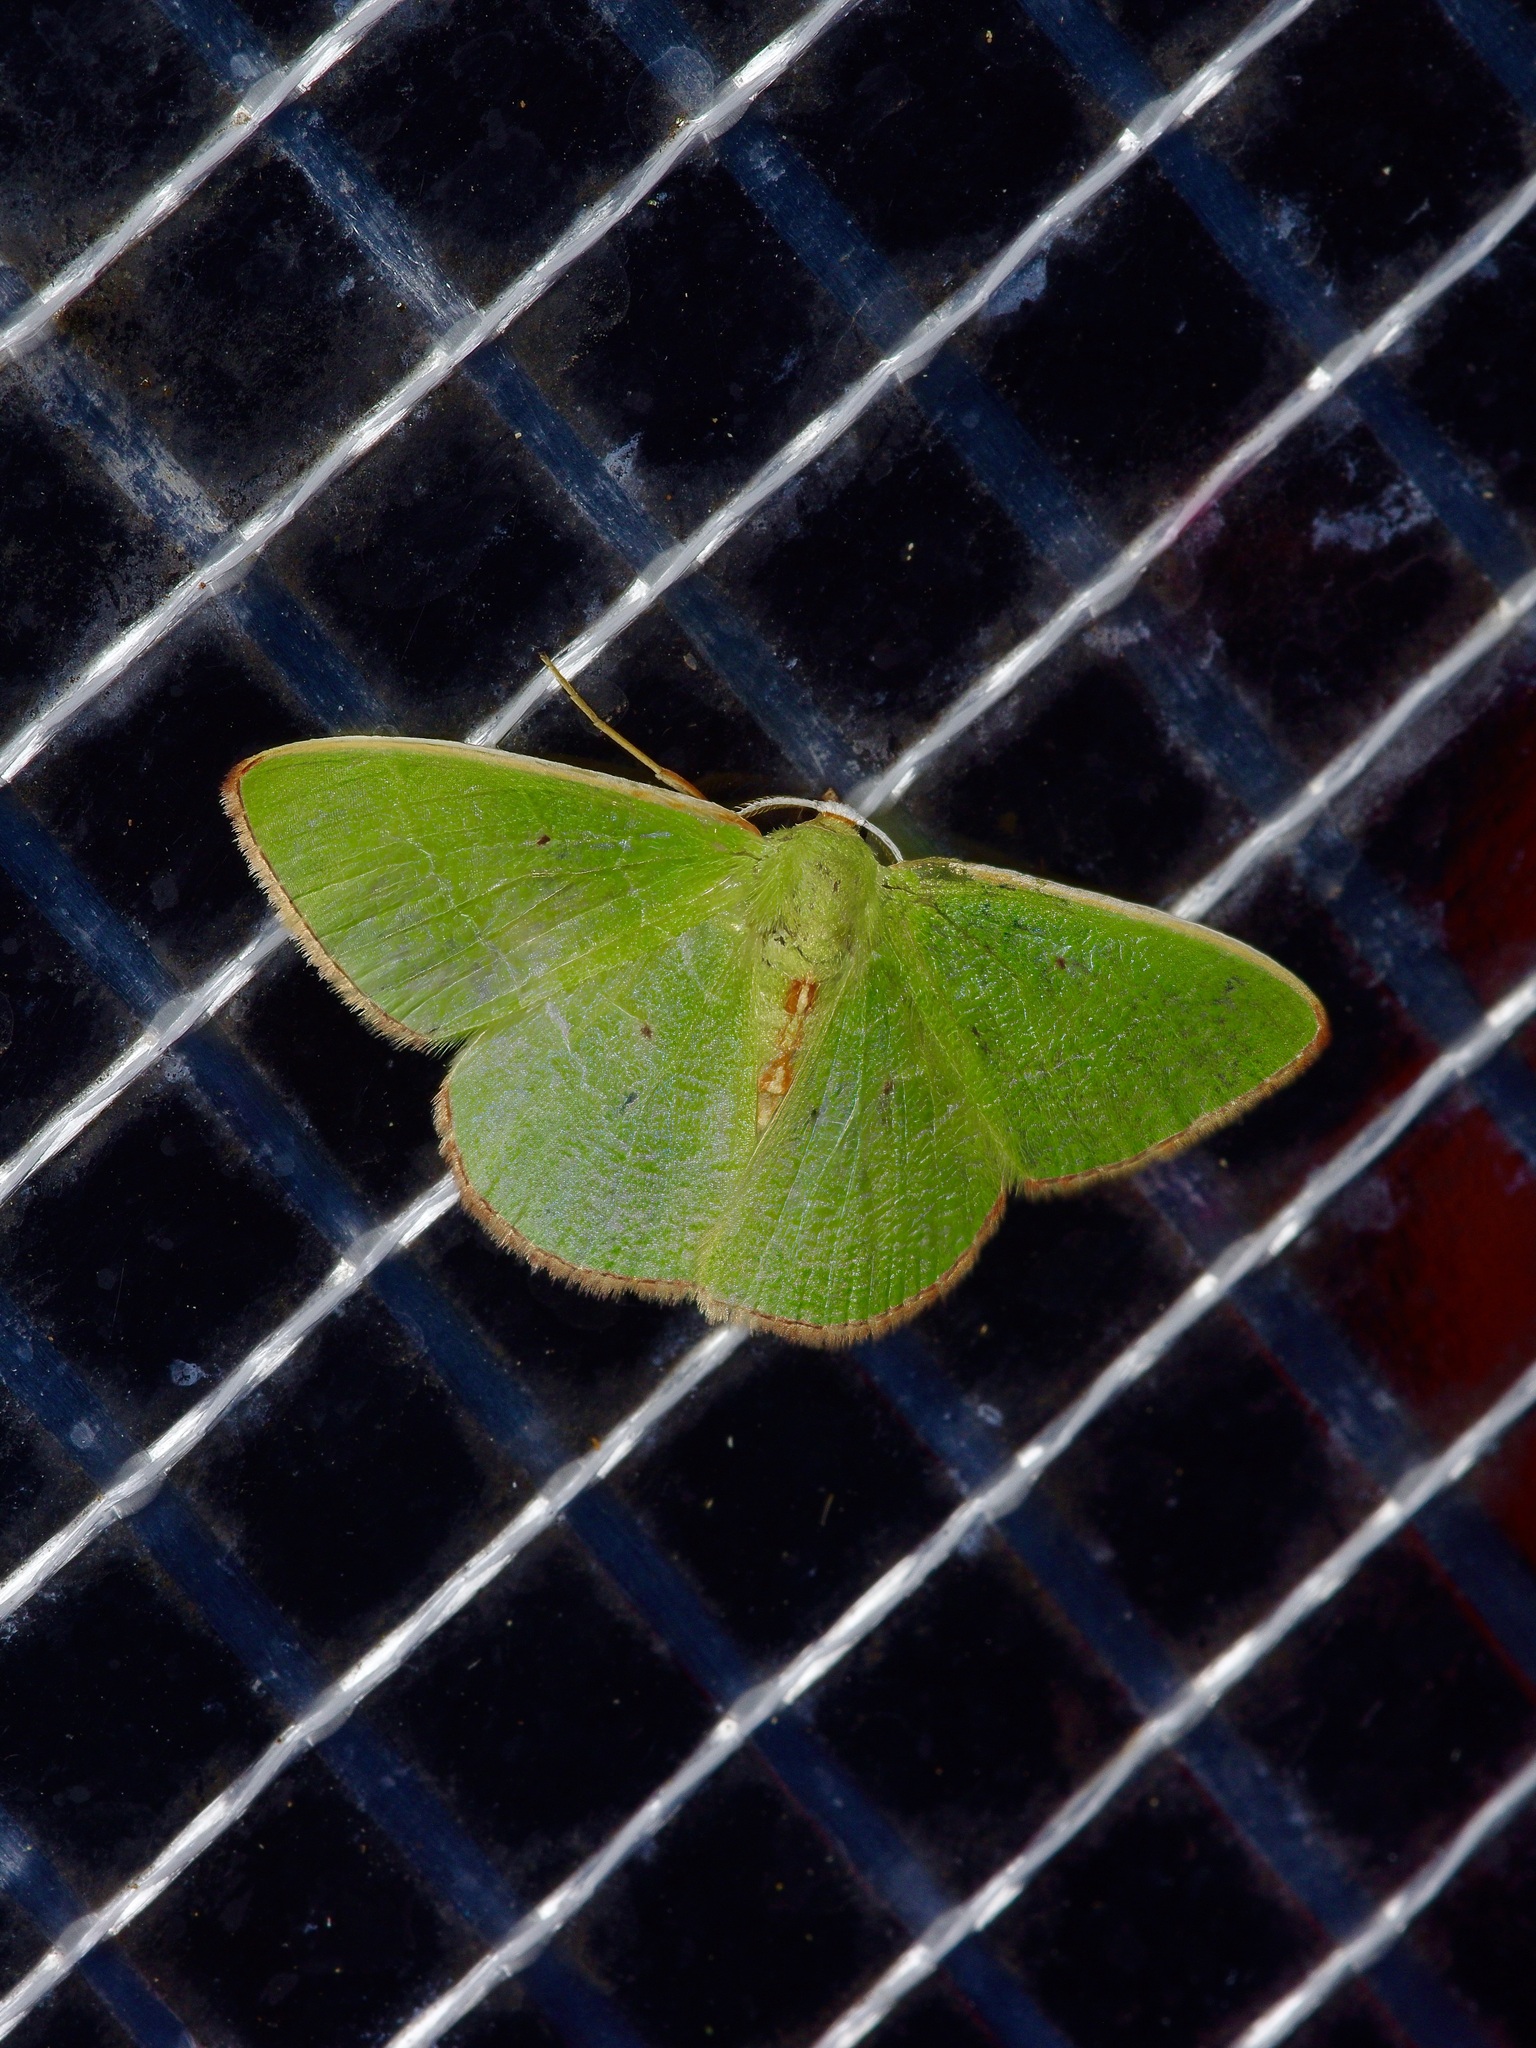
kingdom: Animalia
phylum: Arthropoda
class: Insecta
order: Lepidoptera
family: Geometridae
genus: Nemoria
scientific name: Nemoria bifilata
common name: White-barred emerald moth
